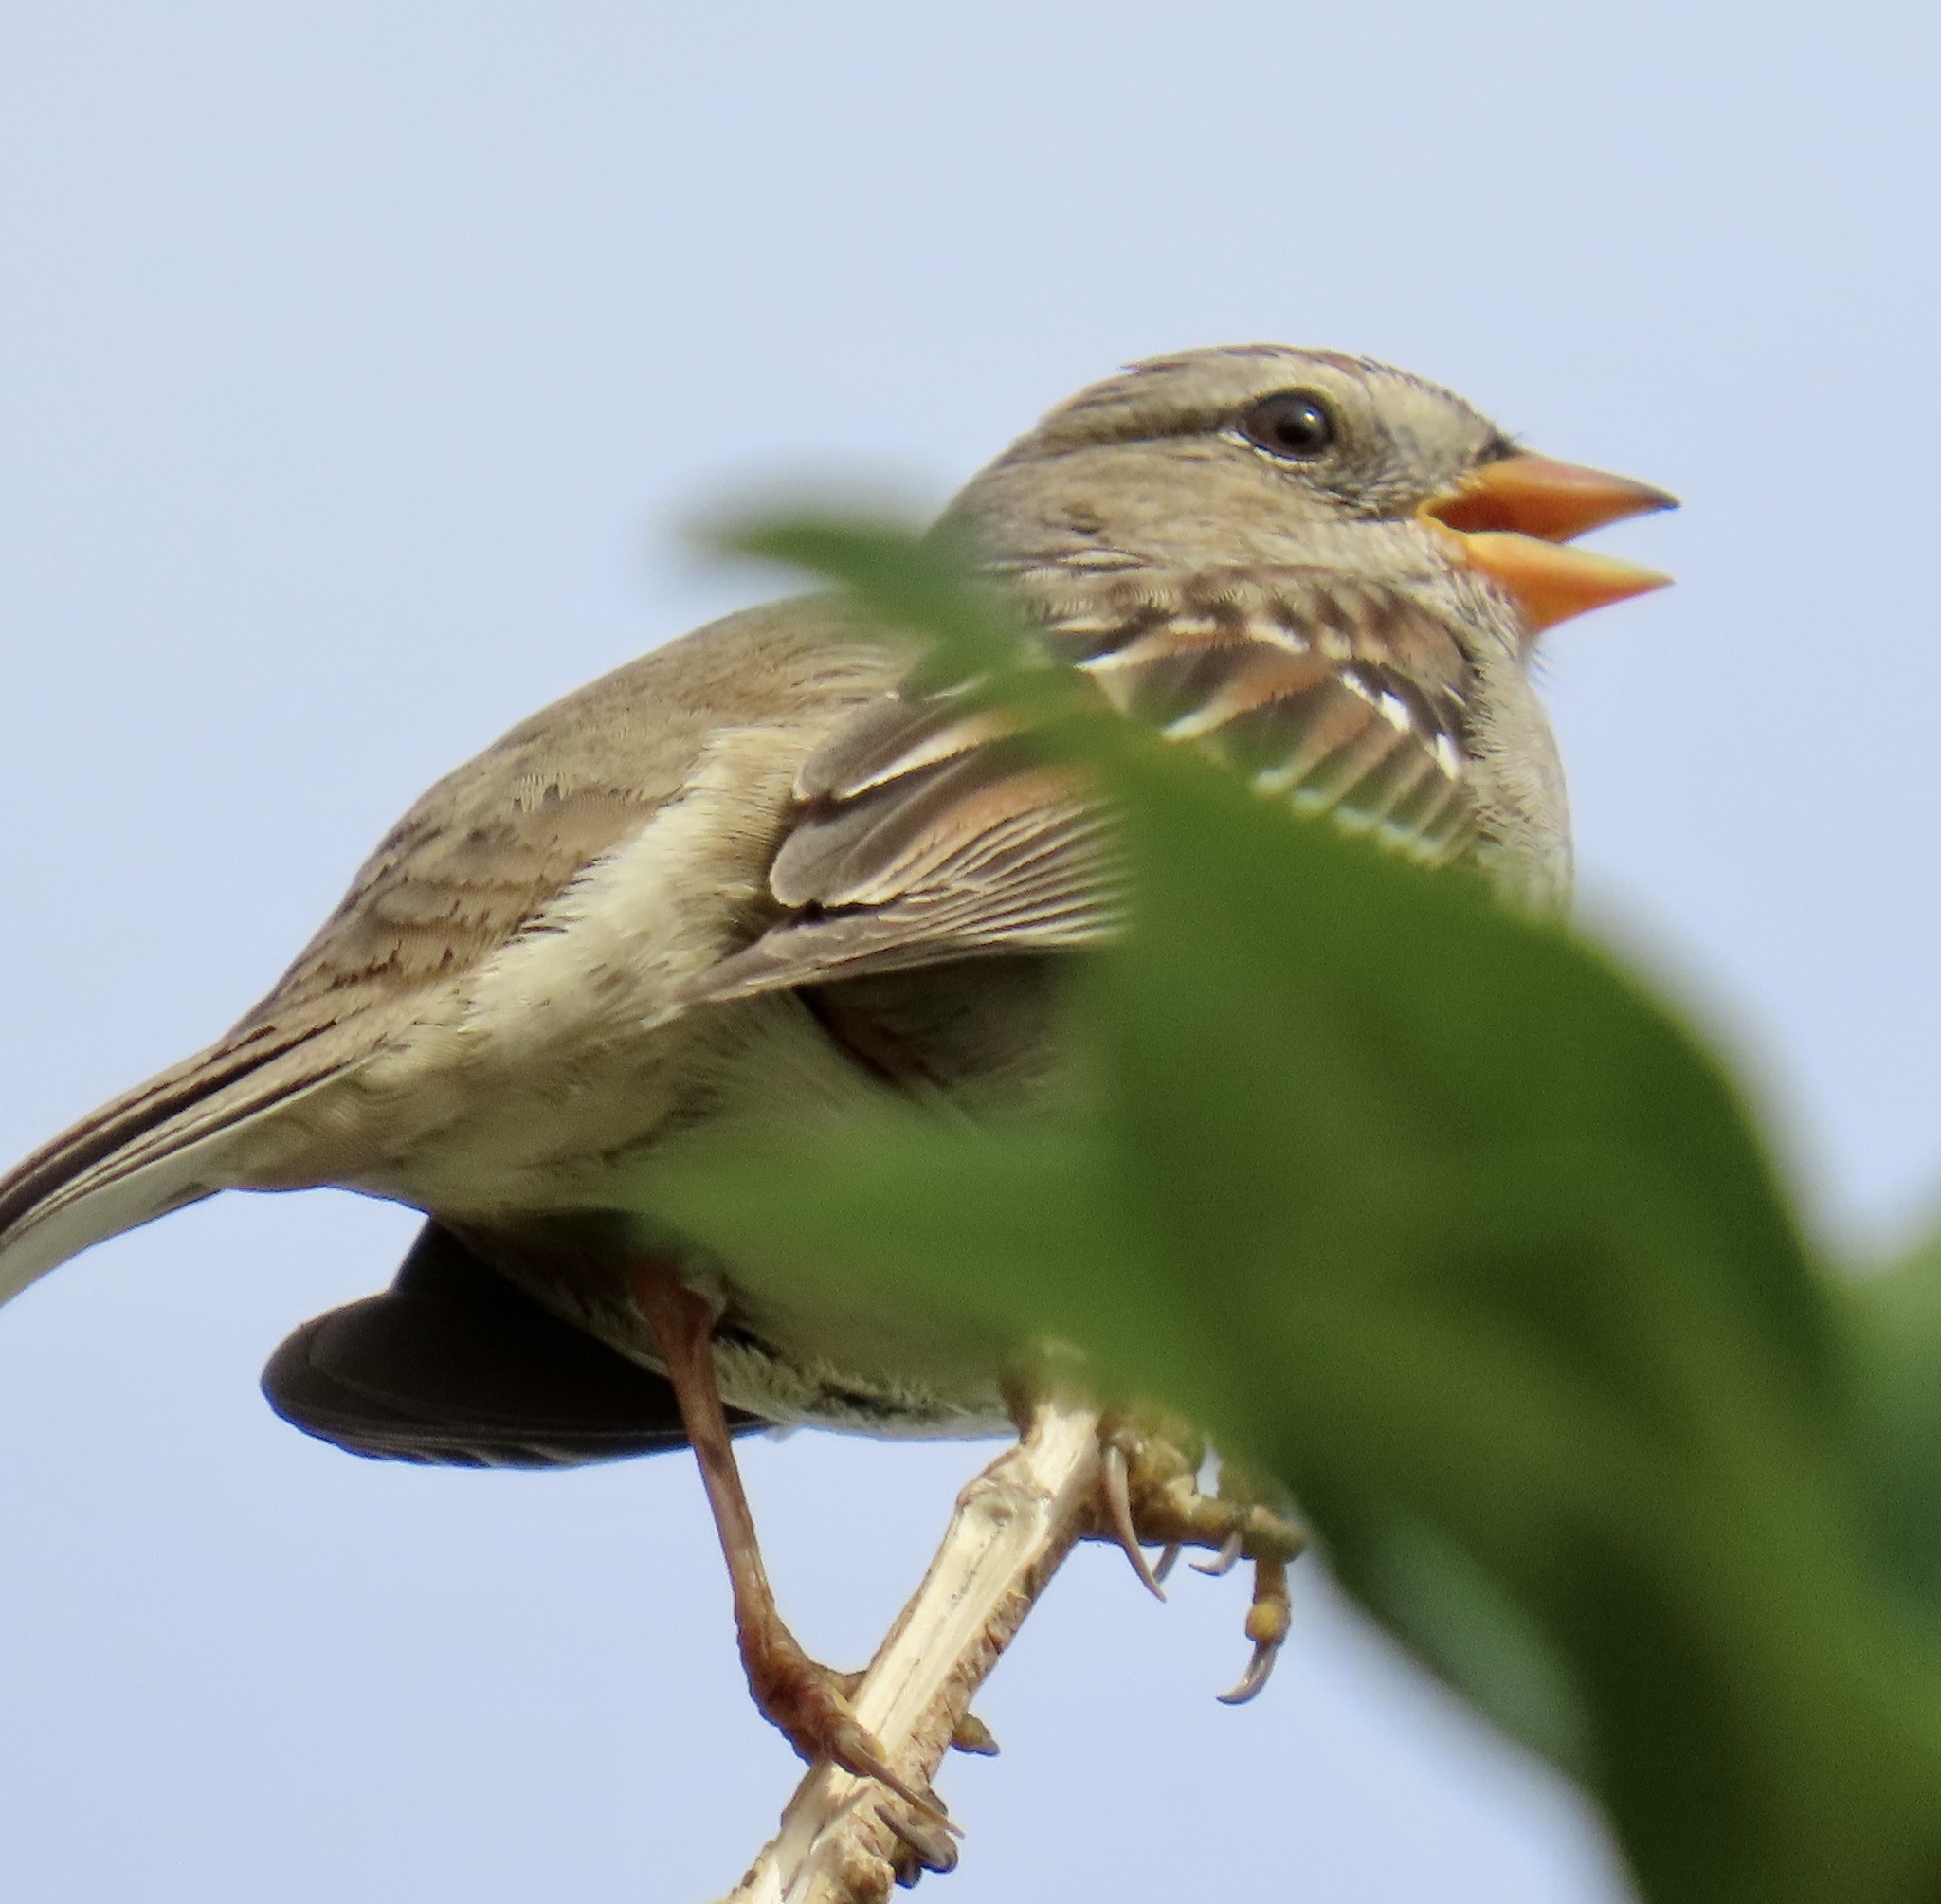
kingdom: Animalia
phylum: Chordata
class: Aves
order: Passeriformes
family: Passerellidae
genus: Zonotrichia
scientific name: Zonotrichia leucophrys
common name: White-crowned sparrow
